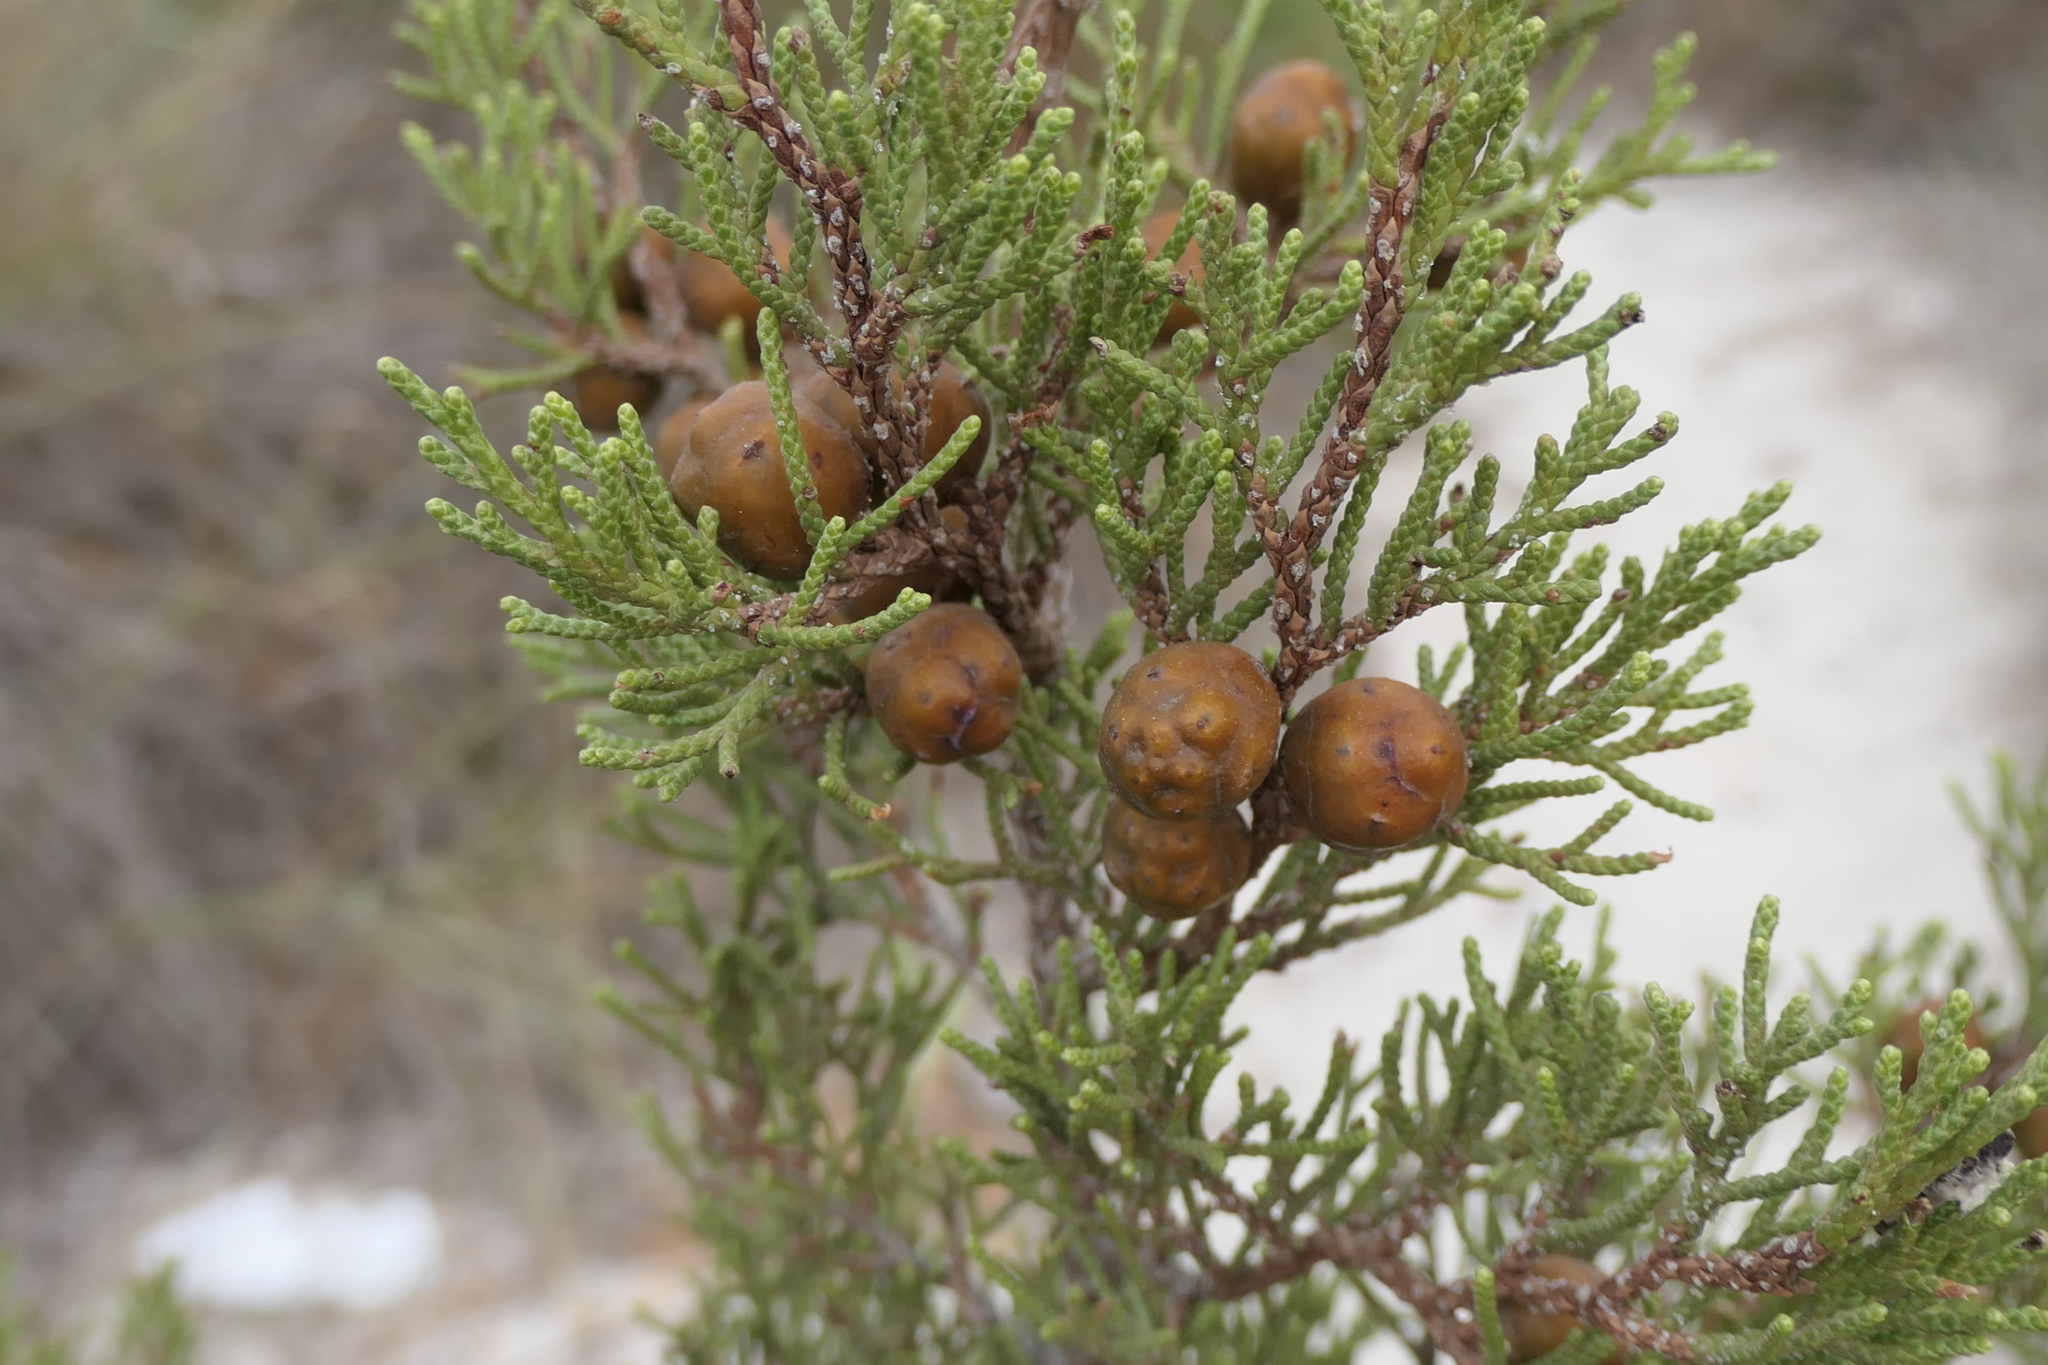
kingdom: Plantae
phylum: Tracheophyta
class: Pinopsida
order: Pinales
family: Cupressaceae
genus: Juniperus
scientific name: Juniperus phoenicea
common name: Phoenician juniper
